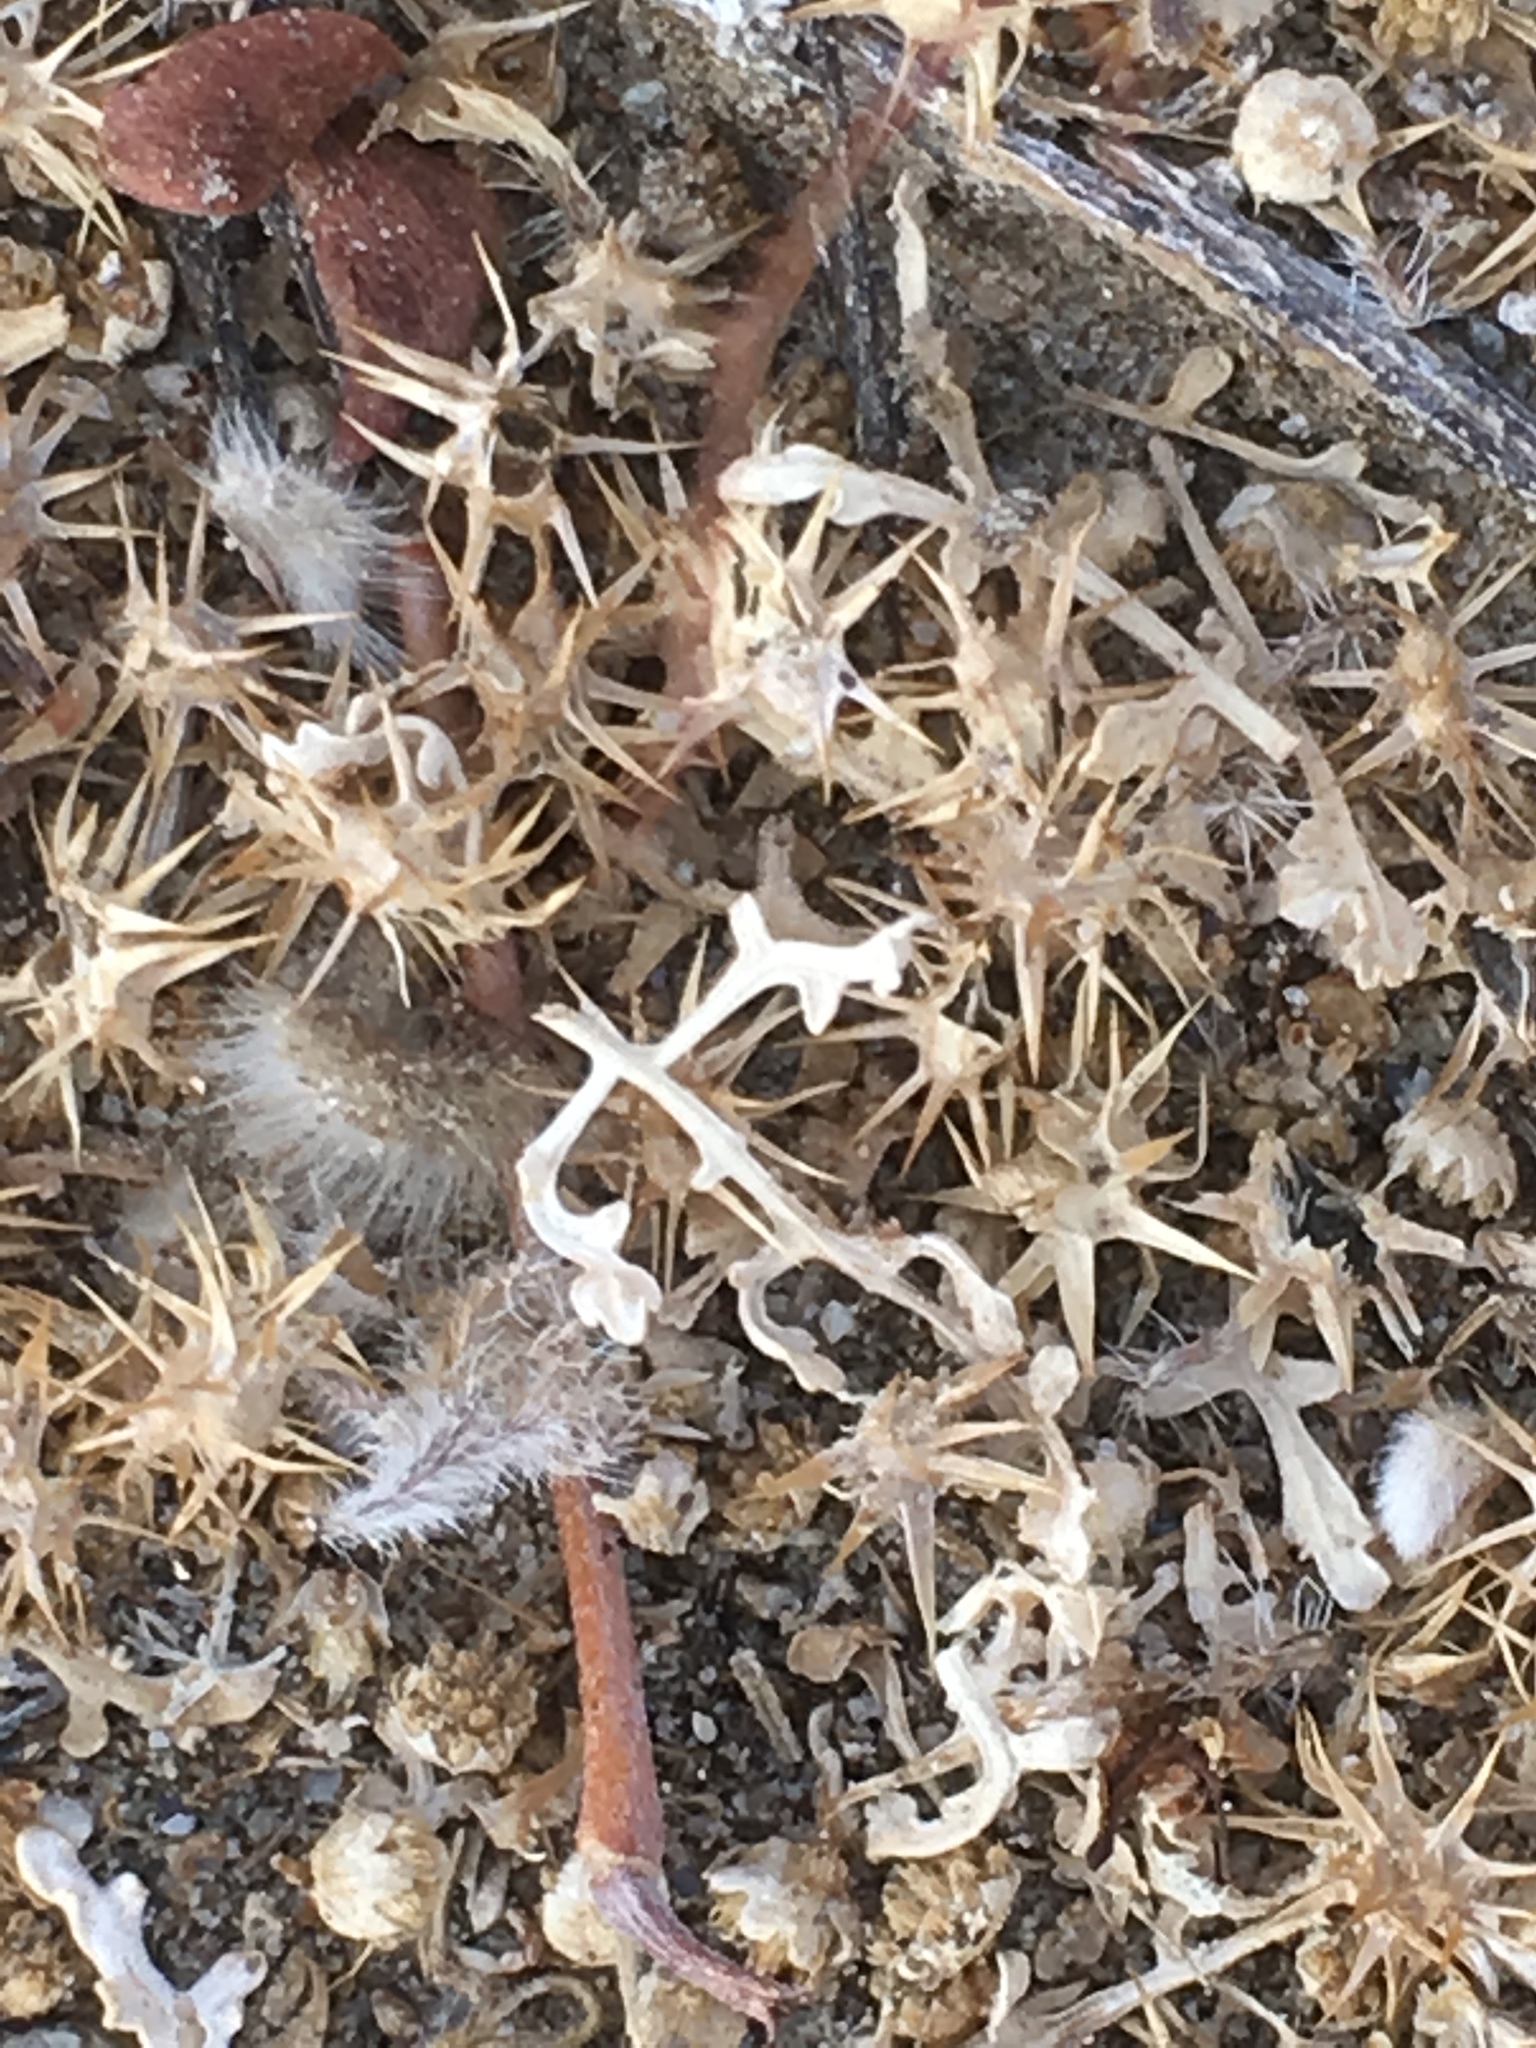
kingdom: Plantae
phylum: Tracheophyta
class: Magnoliopsida
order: Asterales
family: Asteraceae
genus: Ambrosia
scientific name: Ambrosia dumosa
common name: Bur-sage
